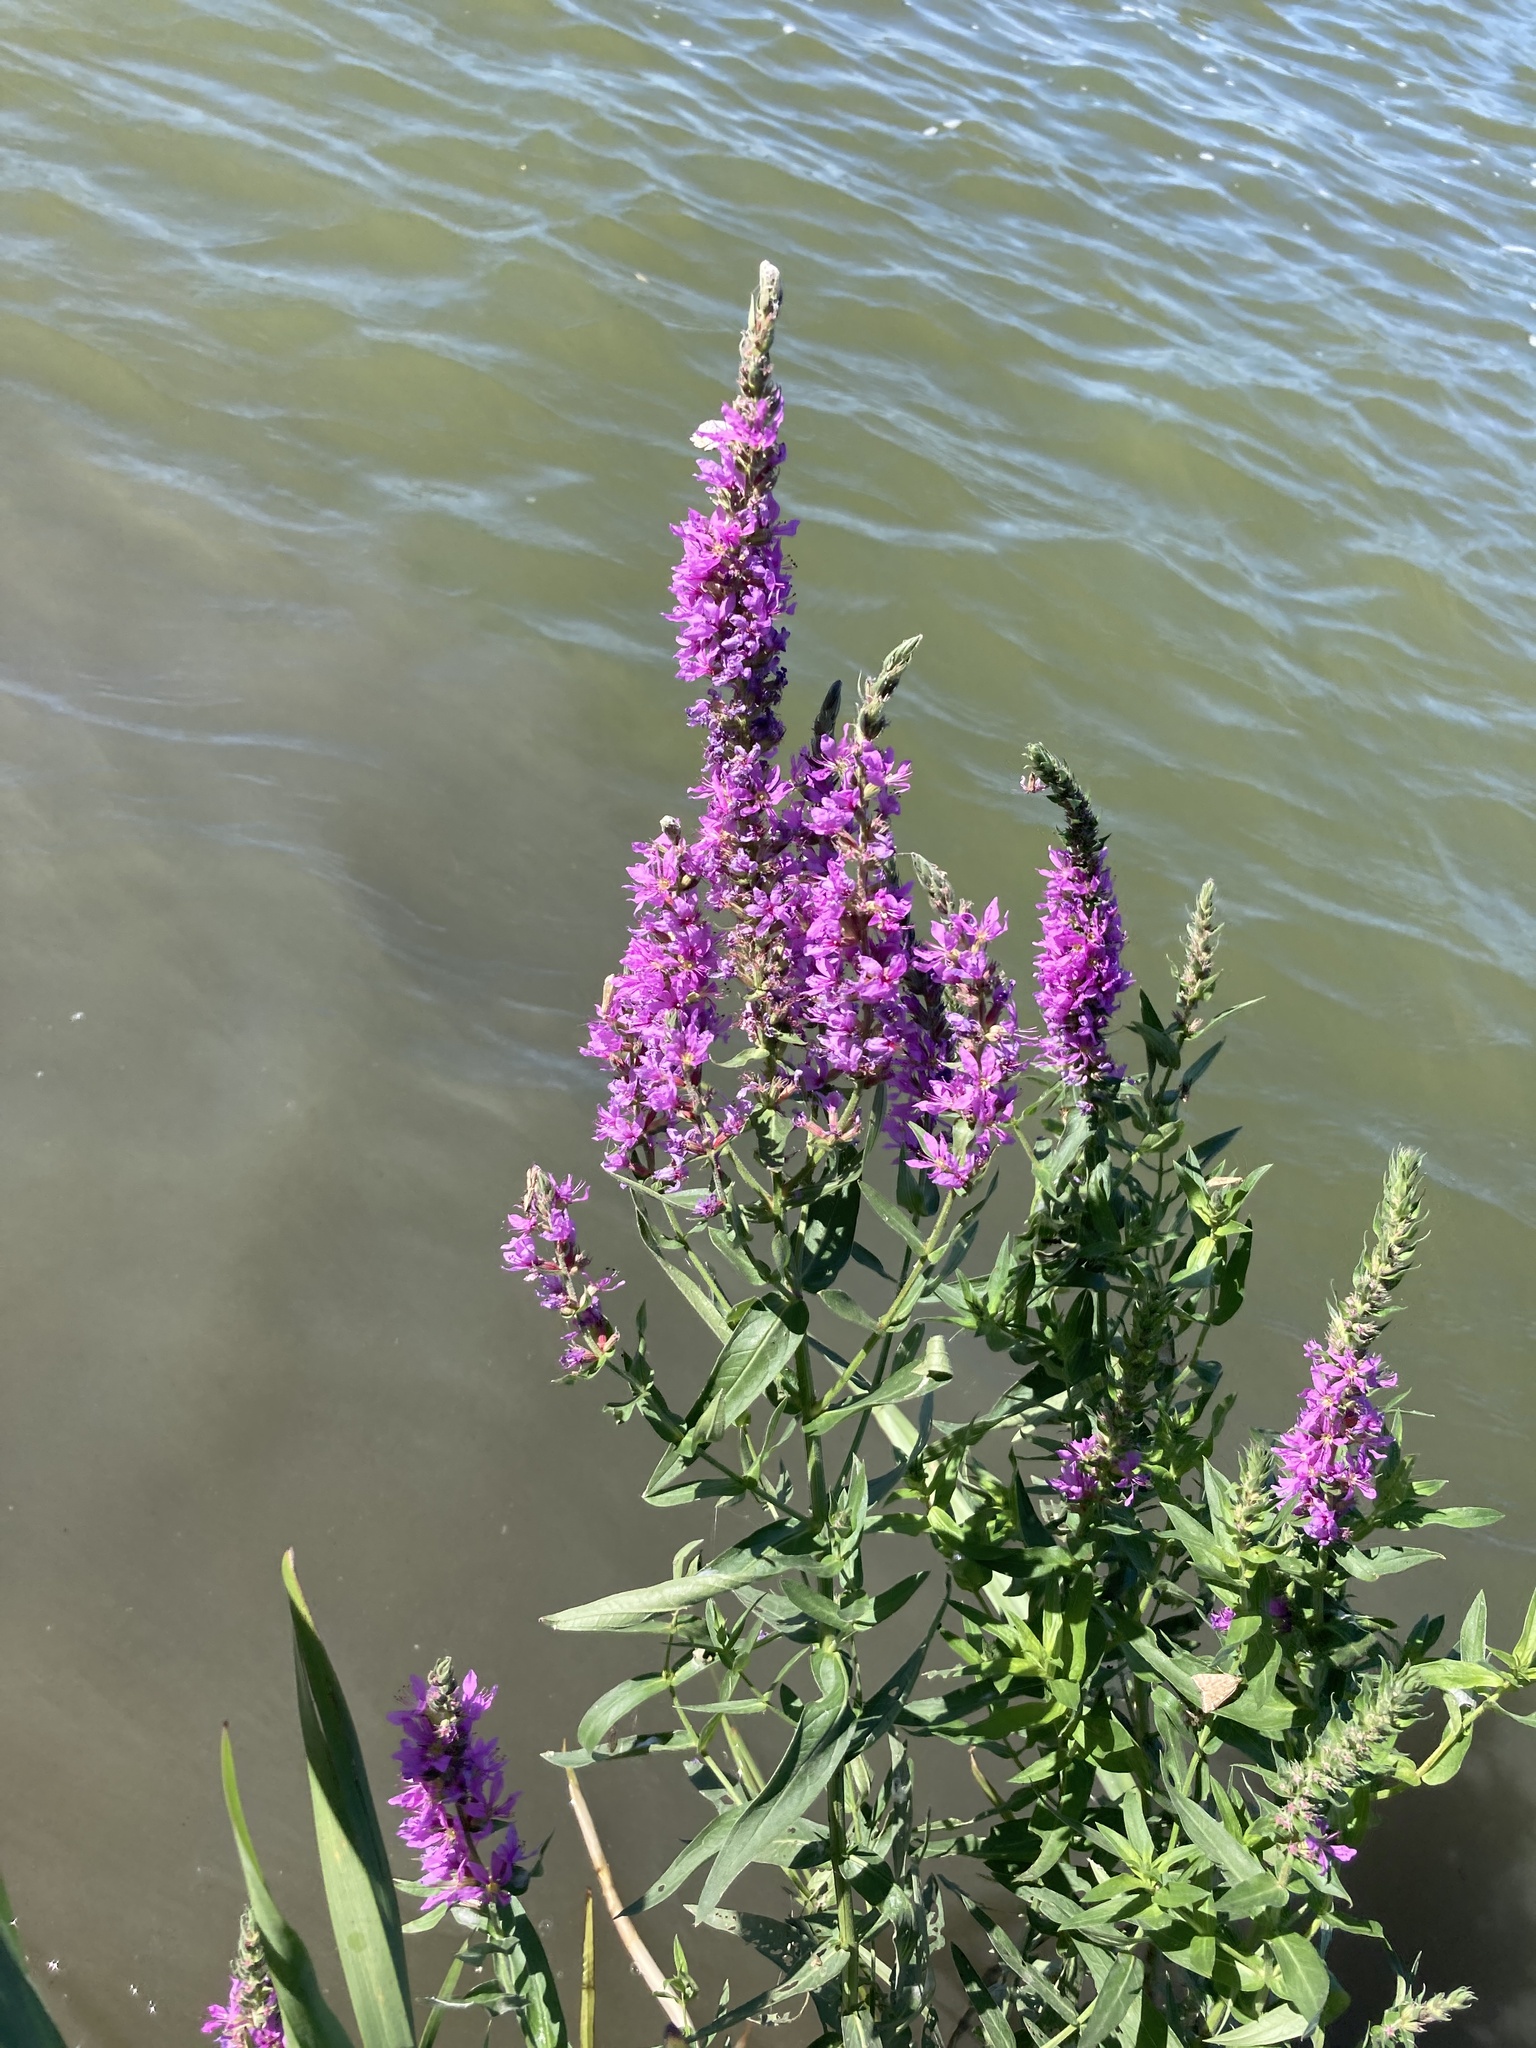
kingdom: Plantae
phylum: Tracheophyta
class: Magnoliopsida
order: Myrtales
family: Lythraceae
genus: Lythrum
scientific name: Lythrum salicaria
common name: Purple loosestrife
